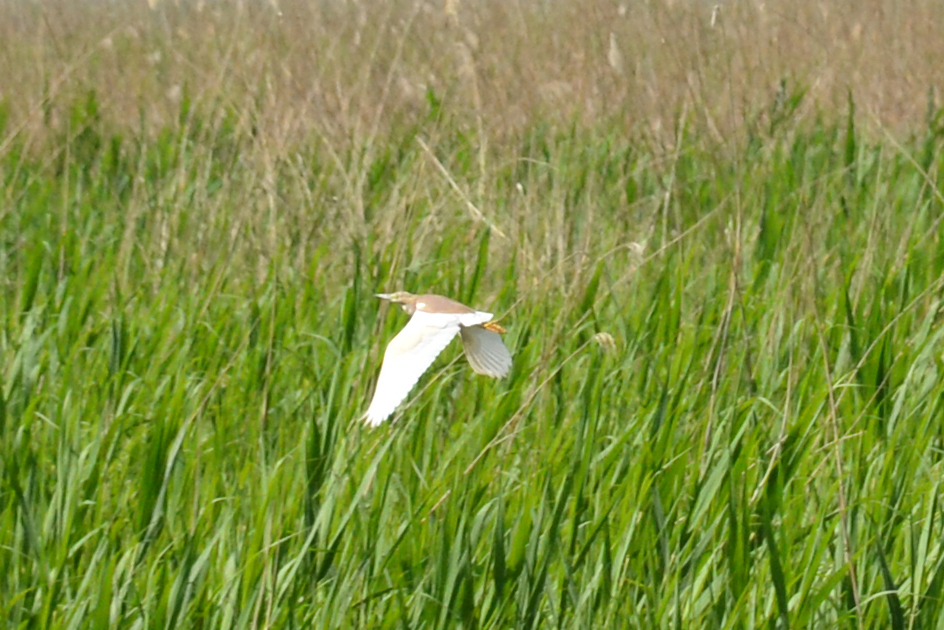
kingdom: Animalia
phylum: Chordata
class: Aves
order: Pelecaniformes
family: Ardeidae
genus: Ardeola
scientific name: Ardeola ralloides
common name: Squacco heron
